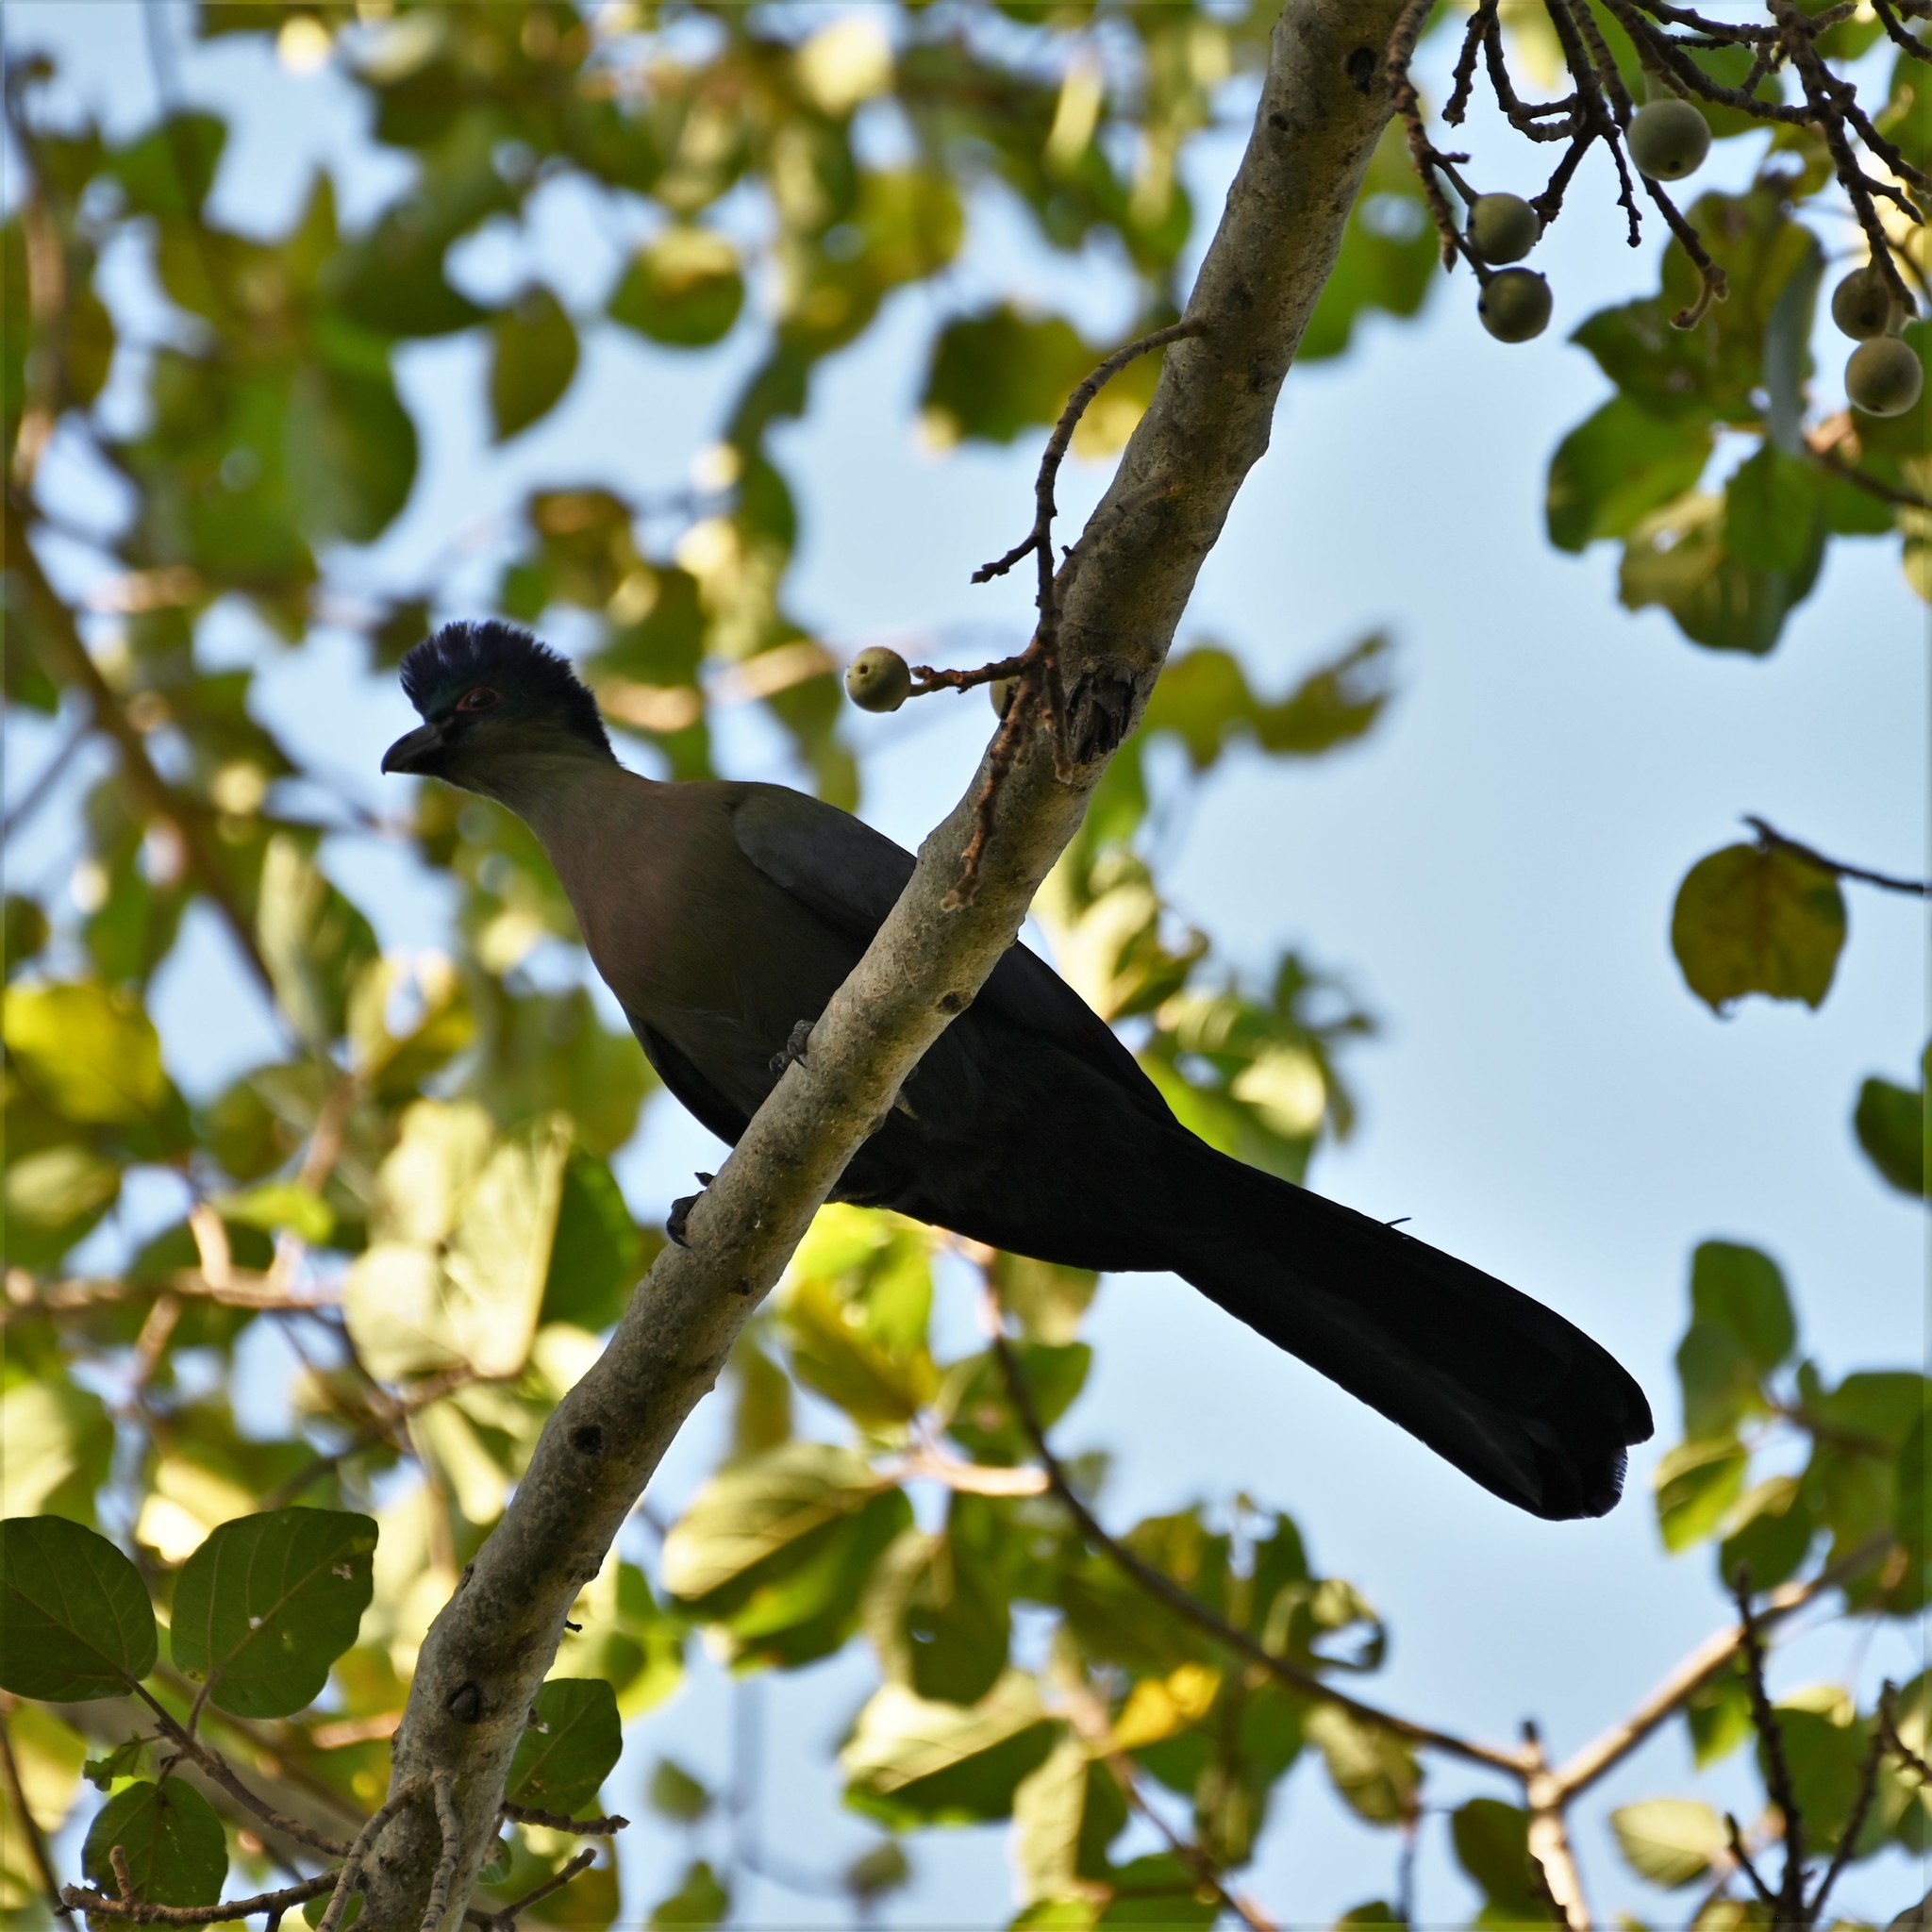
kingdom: Animalia
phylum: Chordata
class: Aves
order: Musophagiformes
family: Musophagidae
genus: Tauraco
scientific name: Tauraco porphyreolophus
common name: Purple-crested turaco
